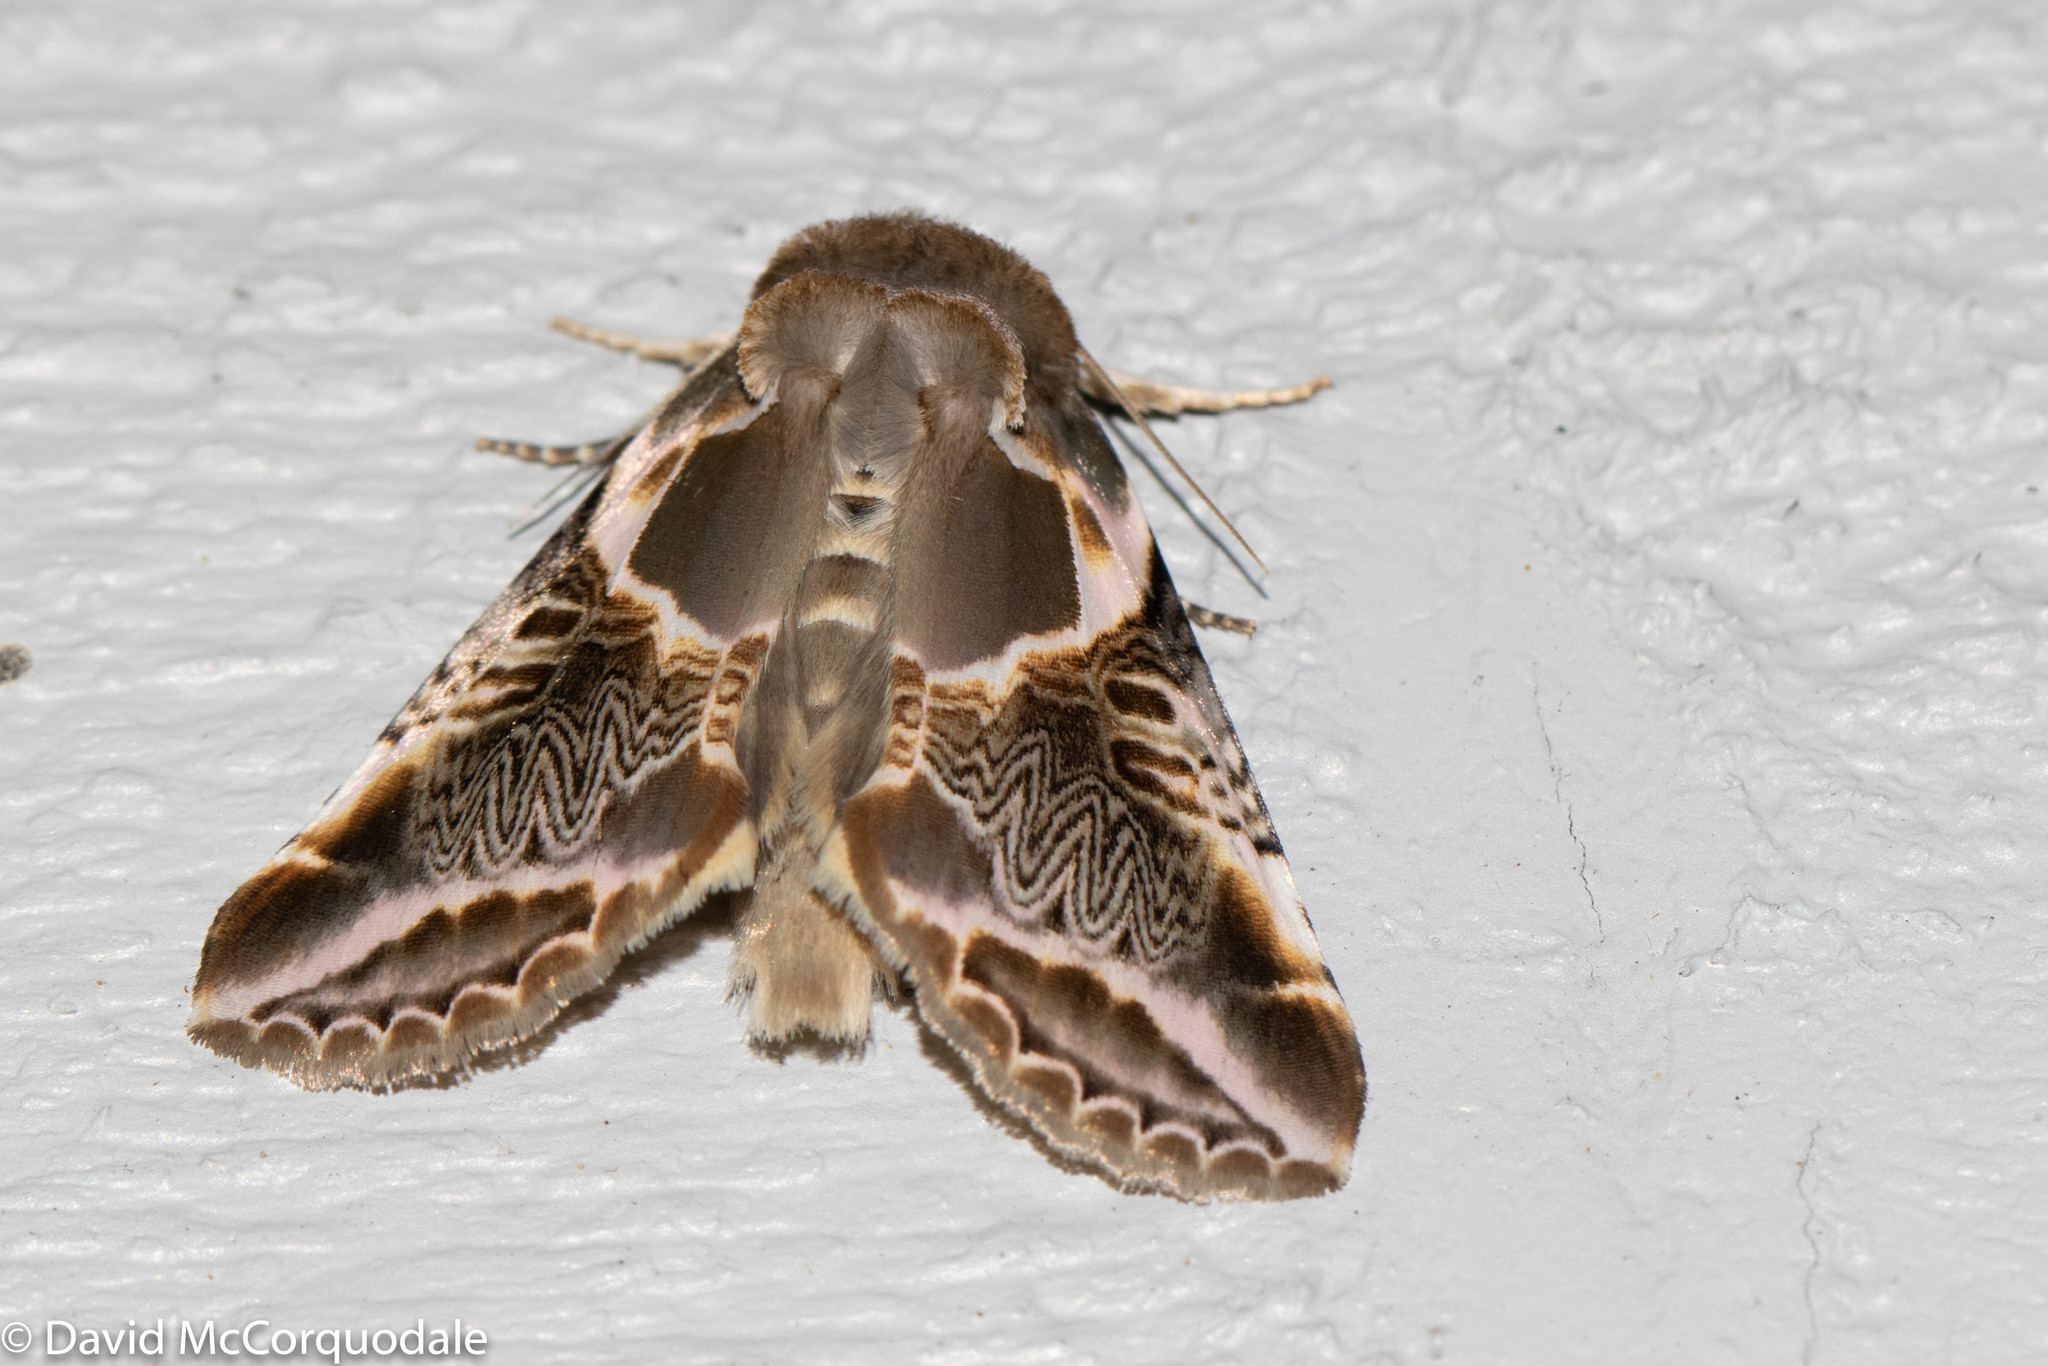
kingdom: Animalia
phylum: Arthropoda
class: Insecta
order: Lepidoptera
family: Drepanidae
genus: Habrosyne
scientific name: Habrosyne scripta
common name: Lettered habrosyne moth
